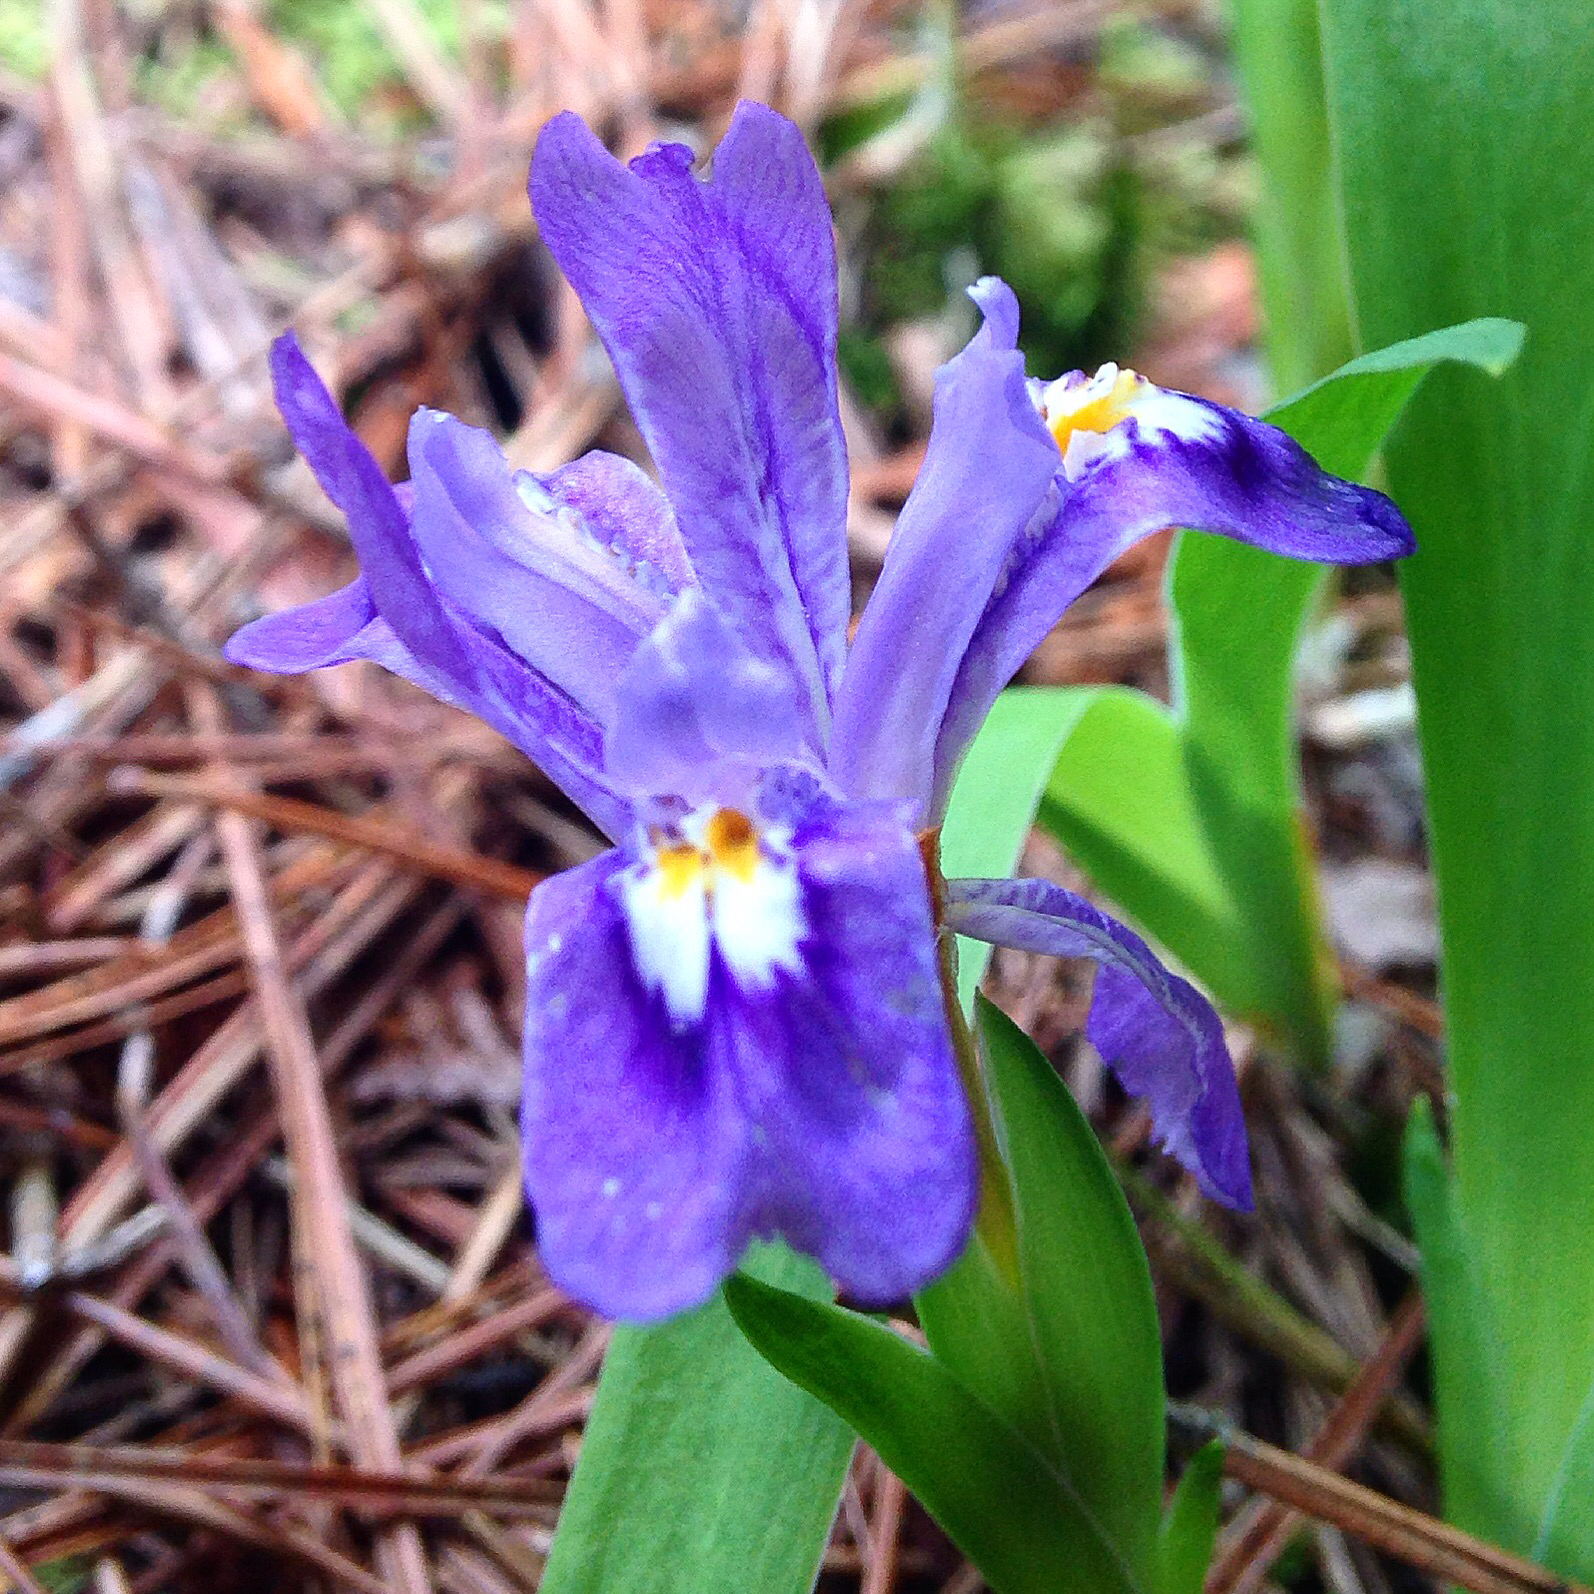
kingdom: Plantae
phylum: Tracheophyta
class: Liliopsida
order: Asparagales
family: Iridaceae
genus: Iris
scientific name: Iris lacustris
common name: Dwarf lake iris
